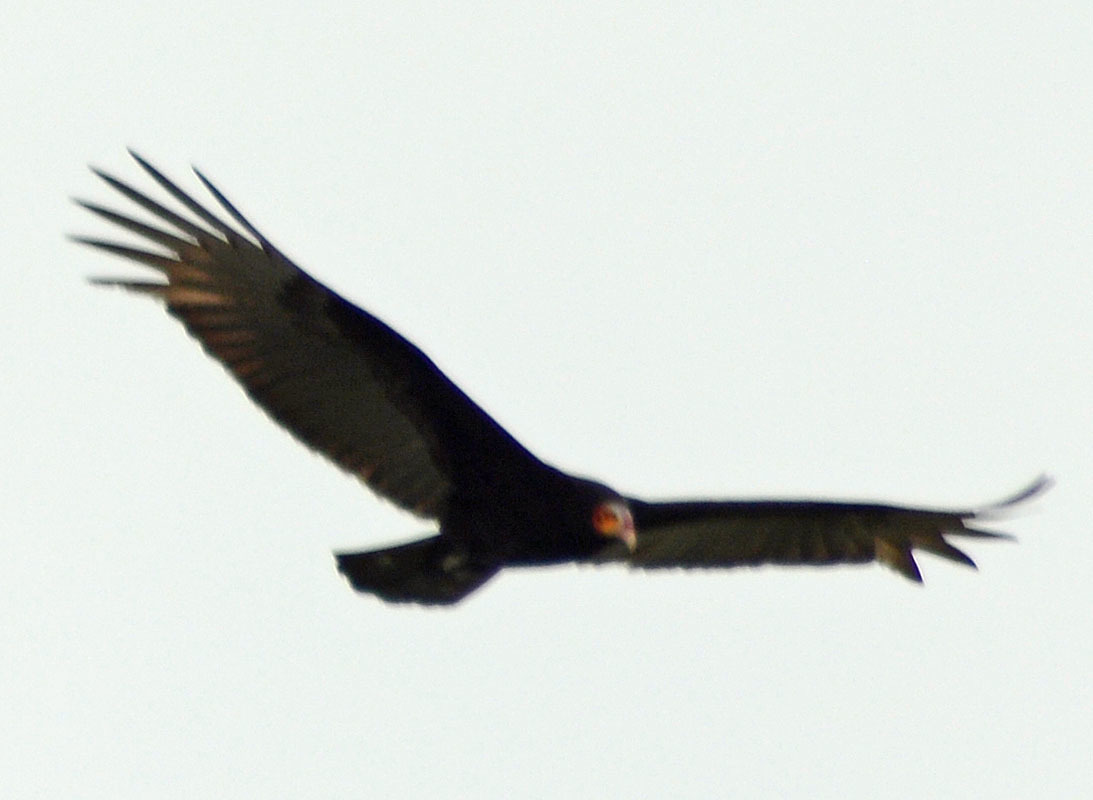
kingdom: Animalia
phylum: Chordata
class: Aves
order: Accipitriformes
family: Cathartidae
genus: Cathartes
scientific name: Cathartes burrovianus
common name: Lesser yellow-headed vulture
